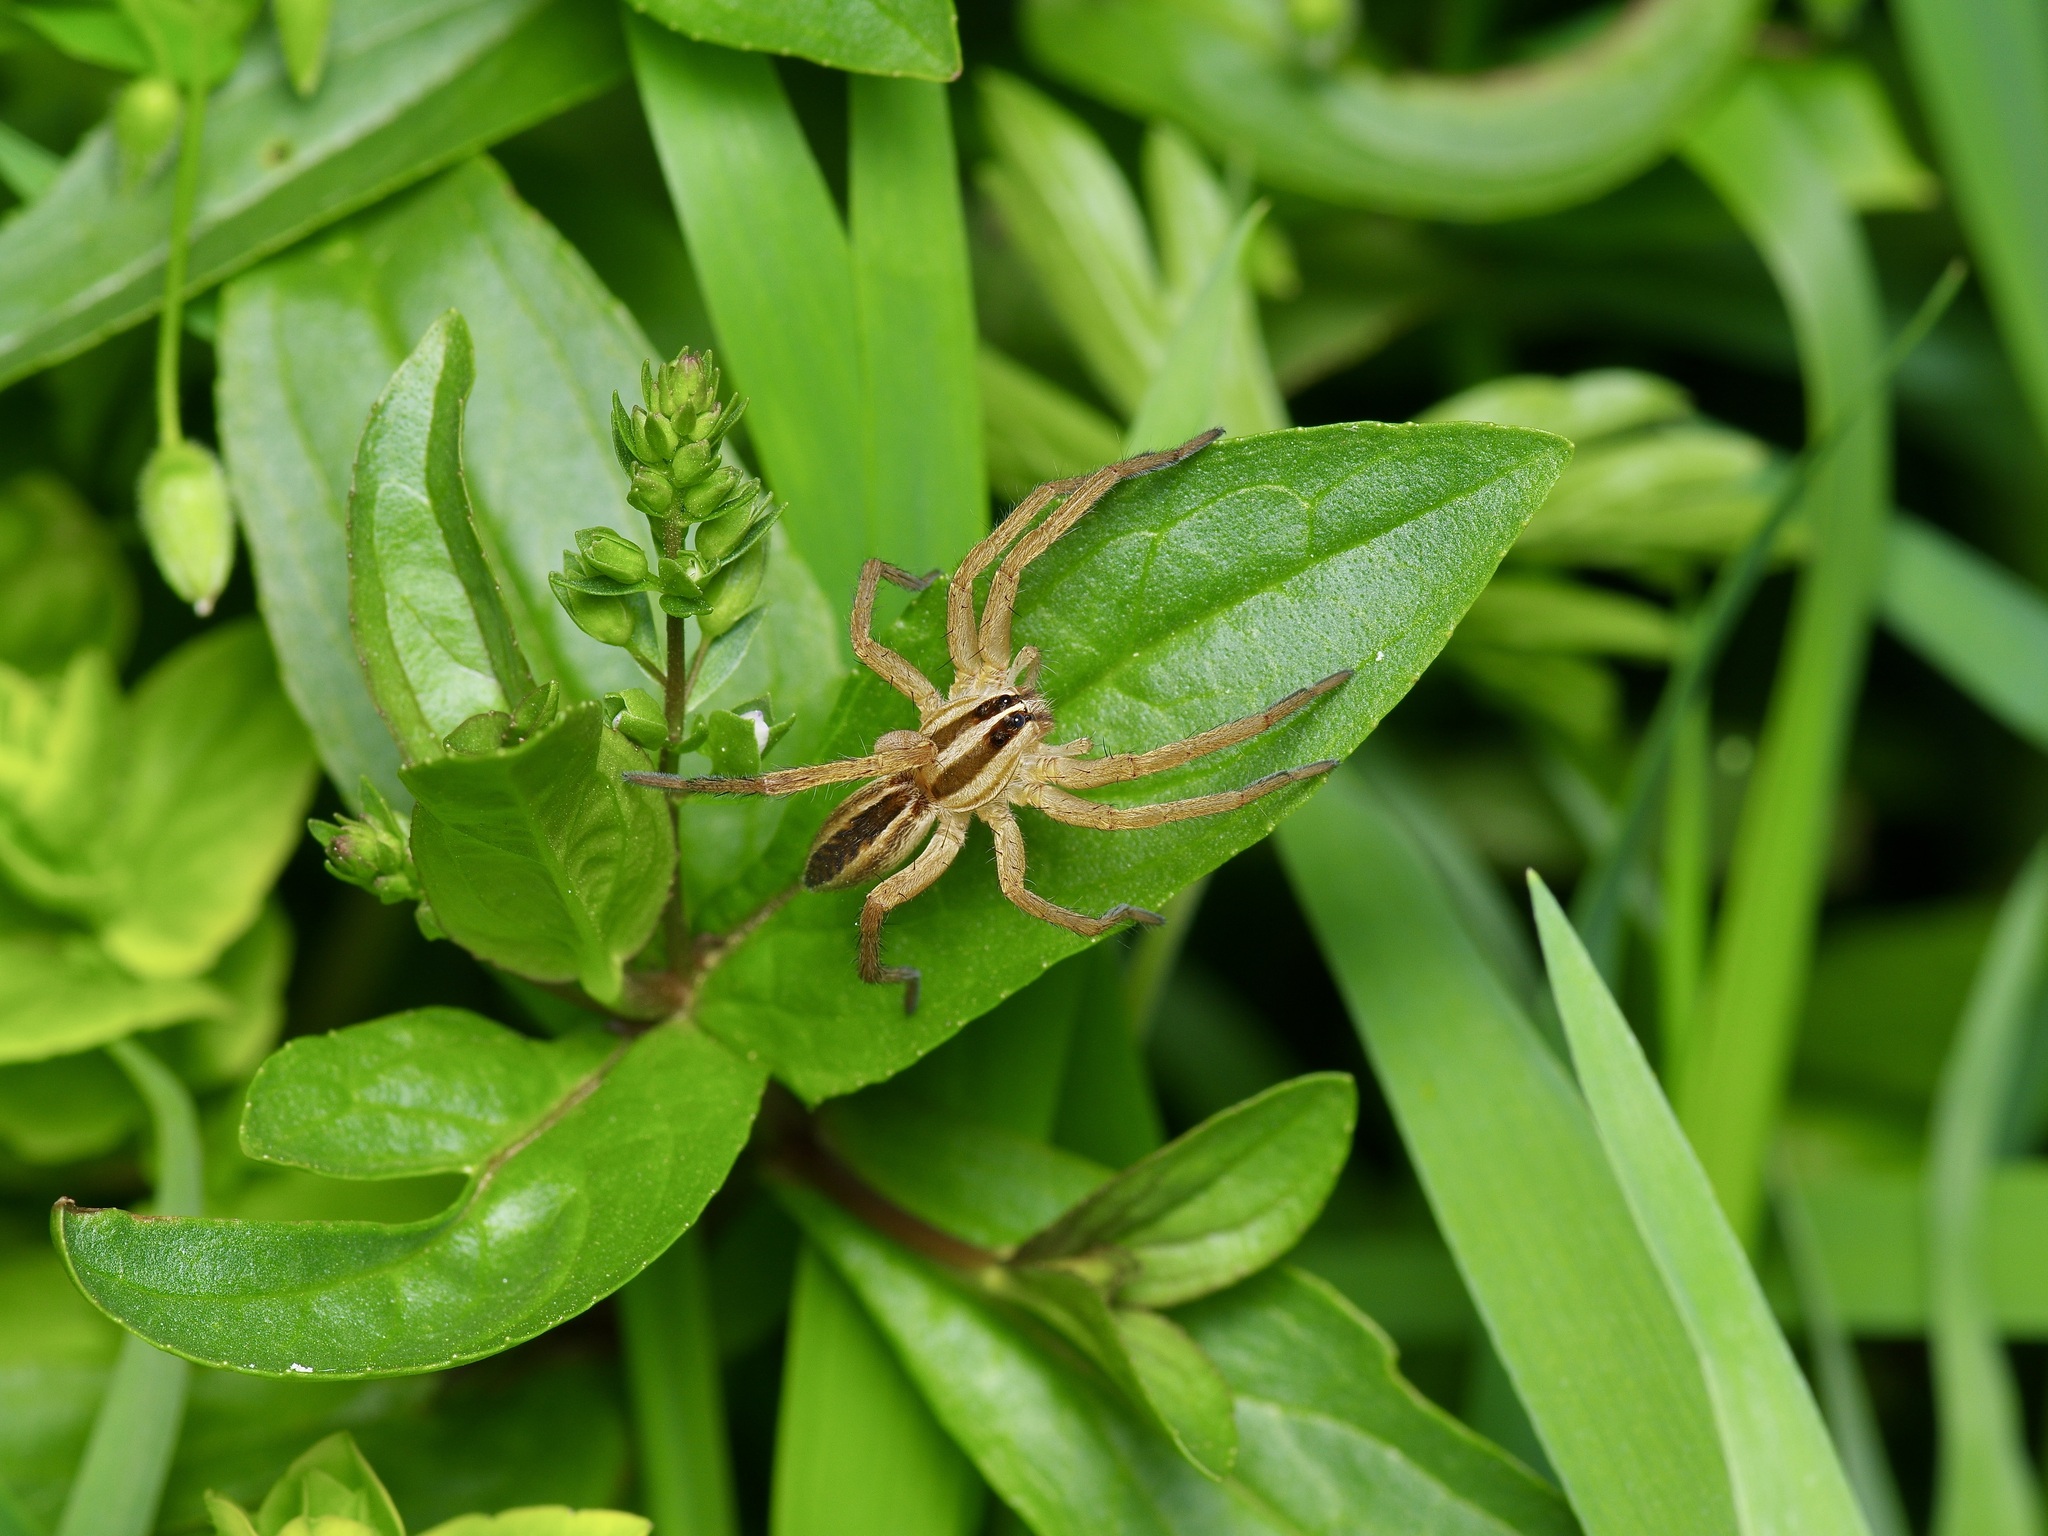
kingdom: Animalia
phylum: Arthropoda
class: Arachnida
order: Araneae
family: Lycosidae
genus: Rabidosa
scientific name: Rabidosa rabida
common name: Rabid wolf spider
